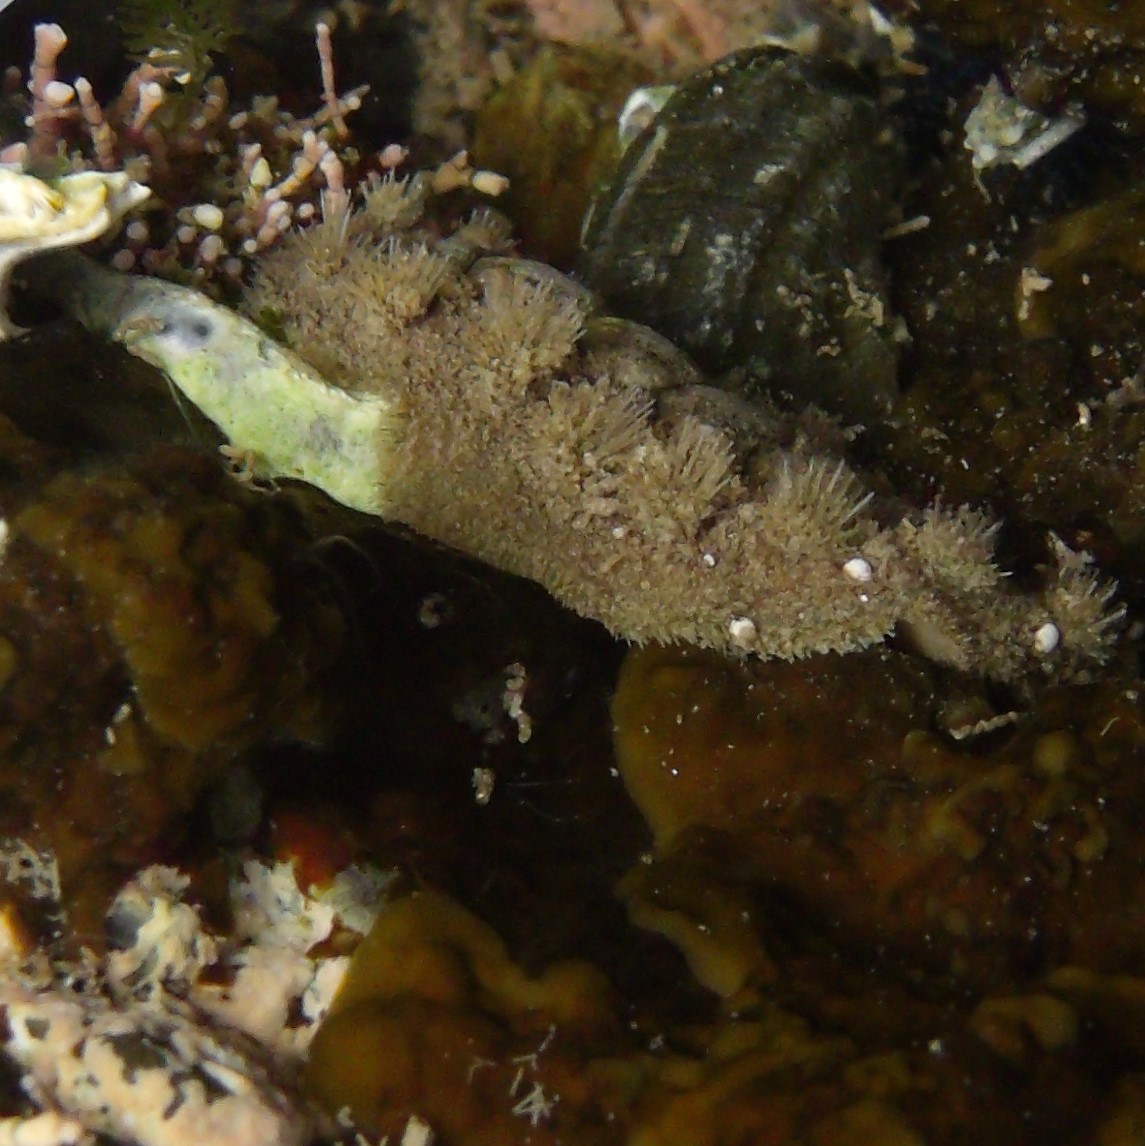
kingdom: Animalia
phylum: Mollusca
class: Polyplacophora
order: Chitonida
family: Acanthochitonidae
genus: Acanthochitona
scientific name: Acanthochitona zelandica
